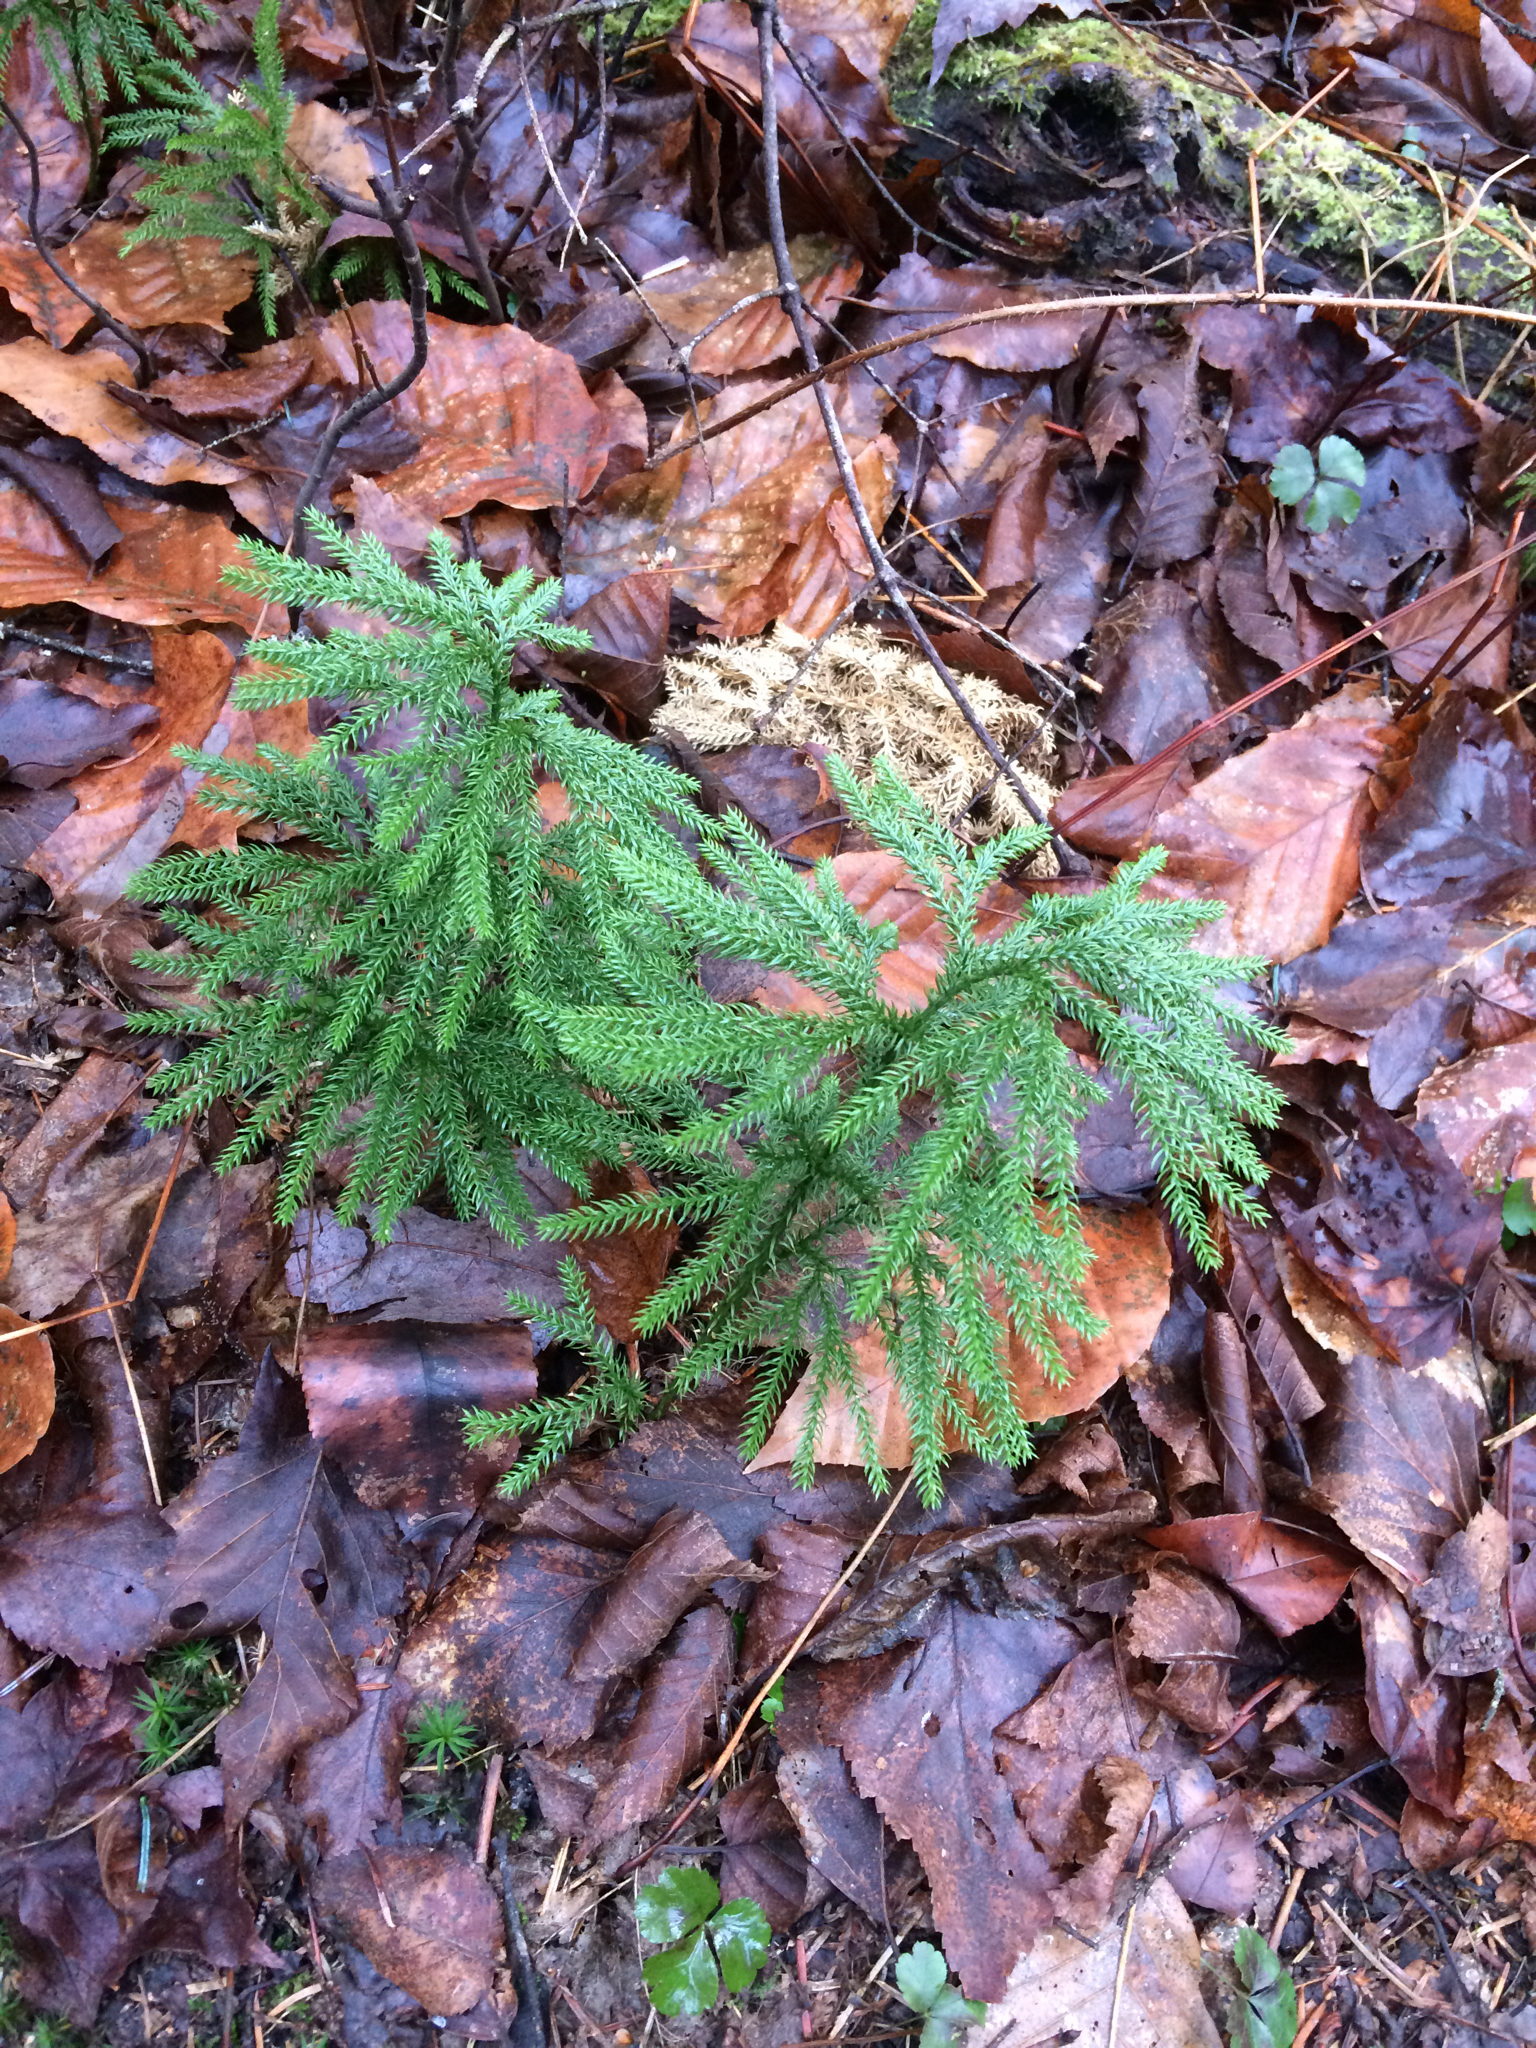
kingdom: Plantae
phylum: Tracheophyta
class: Lycopodiopsida
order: Lycopodiales
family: Lycopodiaceae
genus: Dendrolycopodium
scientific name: Dendrolycopodium obscurum
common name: Common ground-pine
